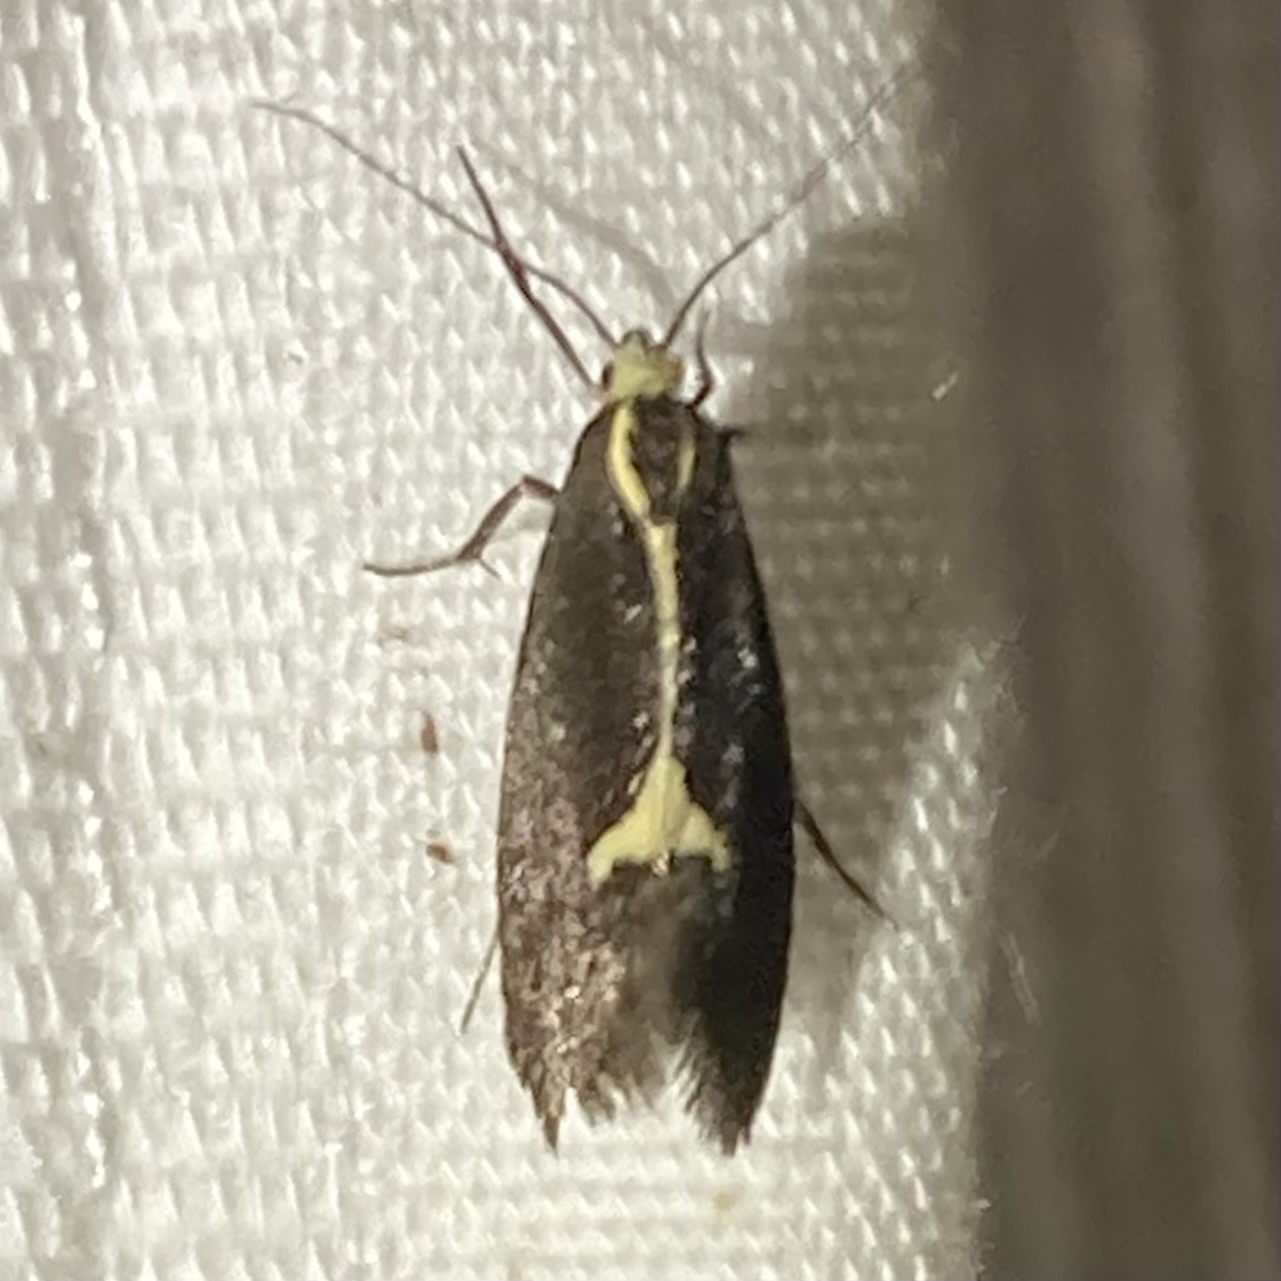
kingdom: Animalia
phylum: Arthropoda
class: Insecta
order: Lepidoptera
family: Oecophoridae
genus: Polix
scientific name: Polix coloradella
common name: Skunk moth
